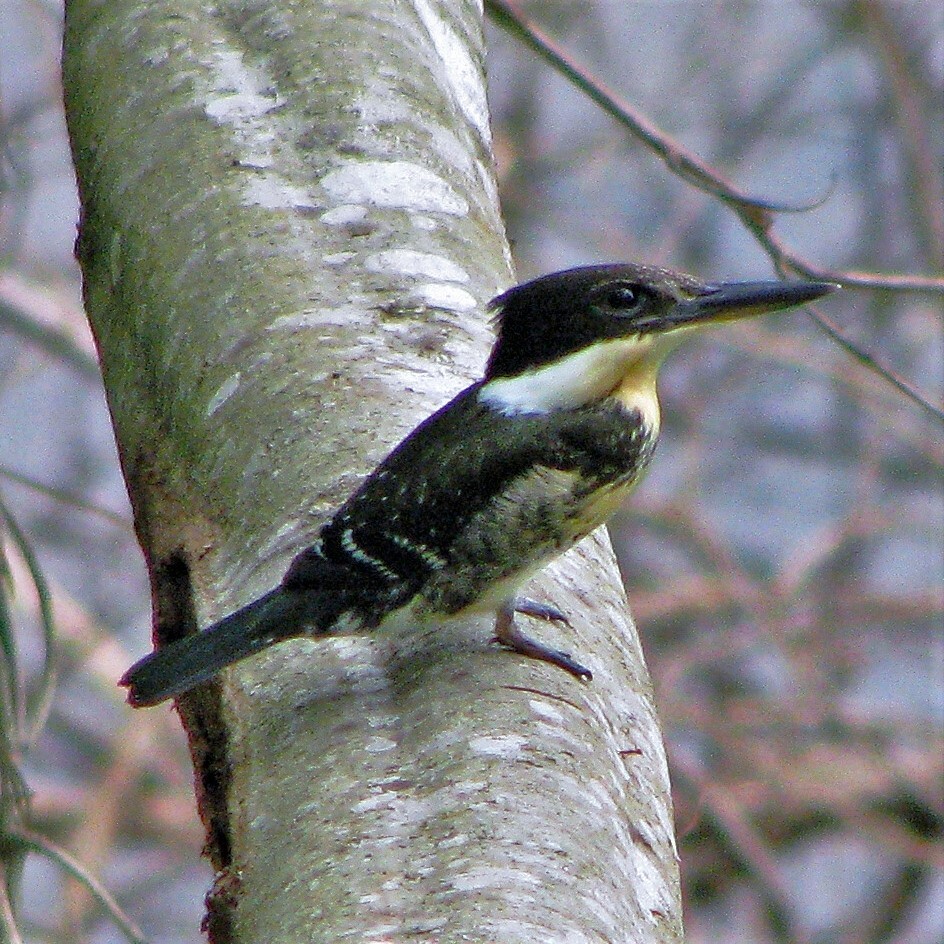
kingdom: Animalia
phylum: Chordata
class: Aves
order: Coraciiformes
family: Alcedinidae
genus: Chloroceryle
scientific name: Chloroceryle americana
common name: Green kingfisher
